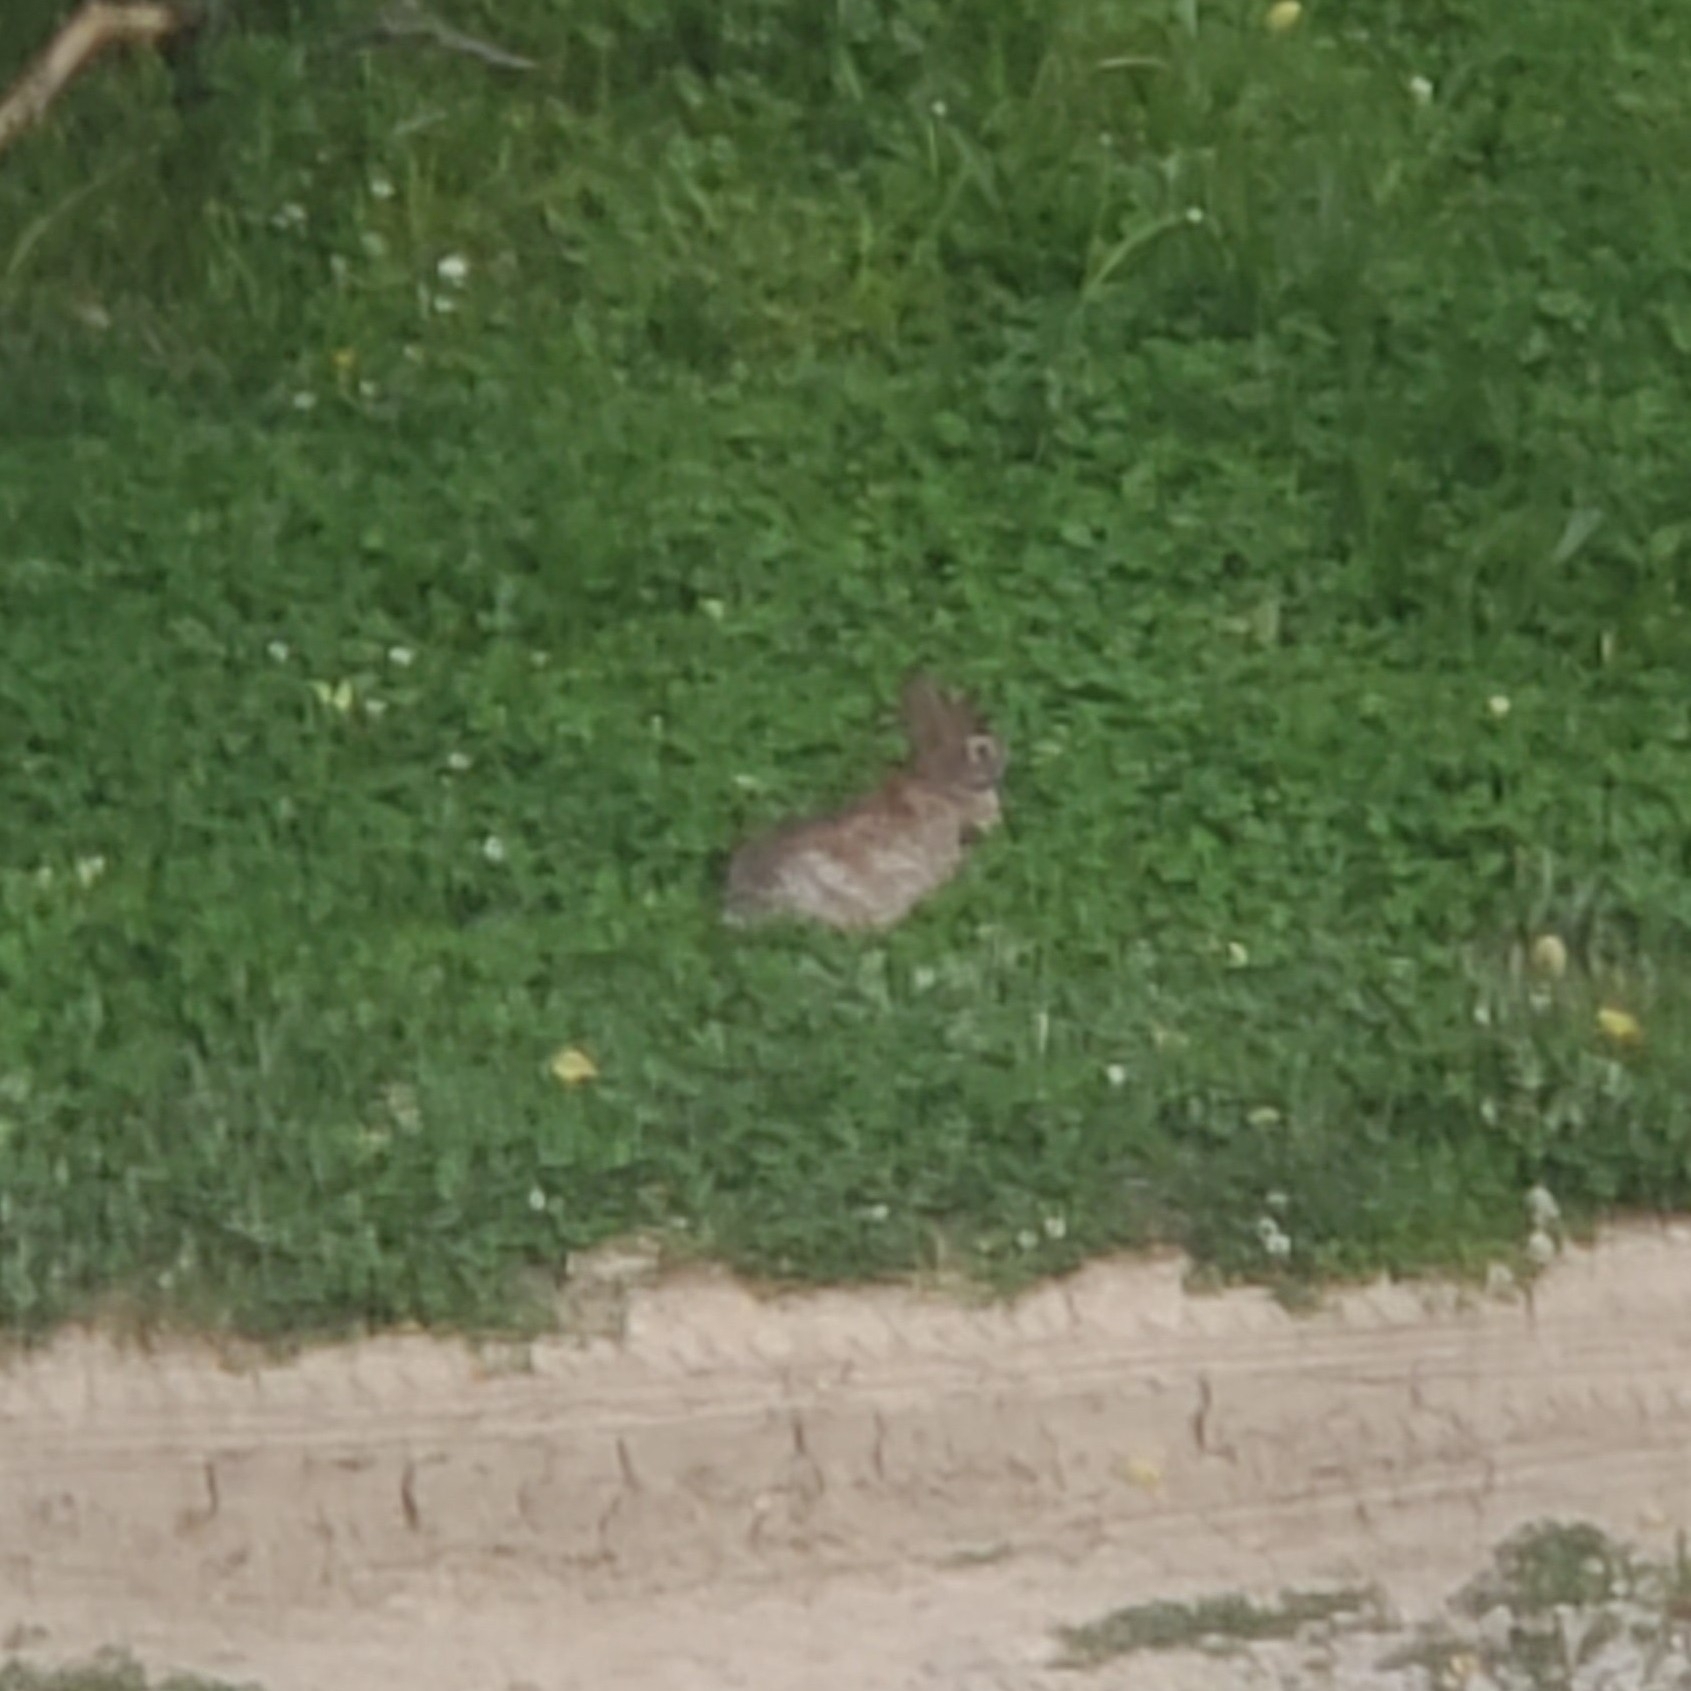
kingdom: Animalia
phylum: Chordata
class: Mammalia
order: Lagomorpha
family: Leporidae
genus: Sylvilagus
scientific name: Sylvilagus floridanus
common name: Eastern cottontail
